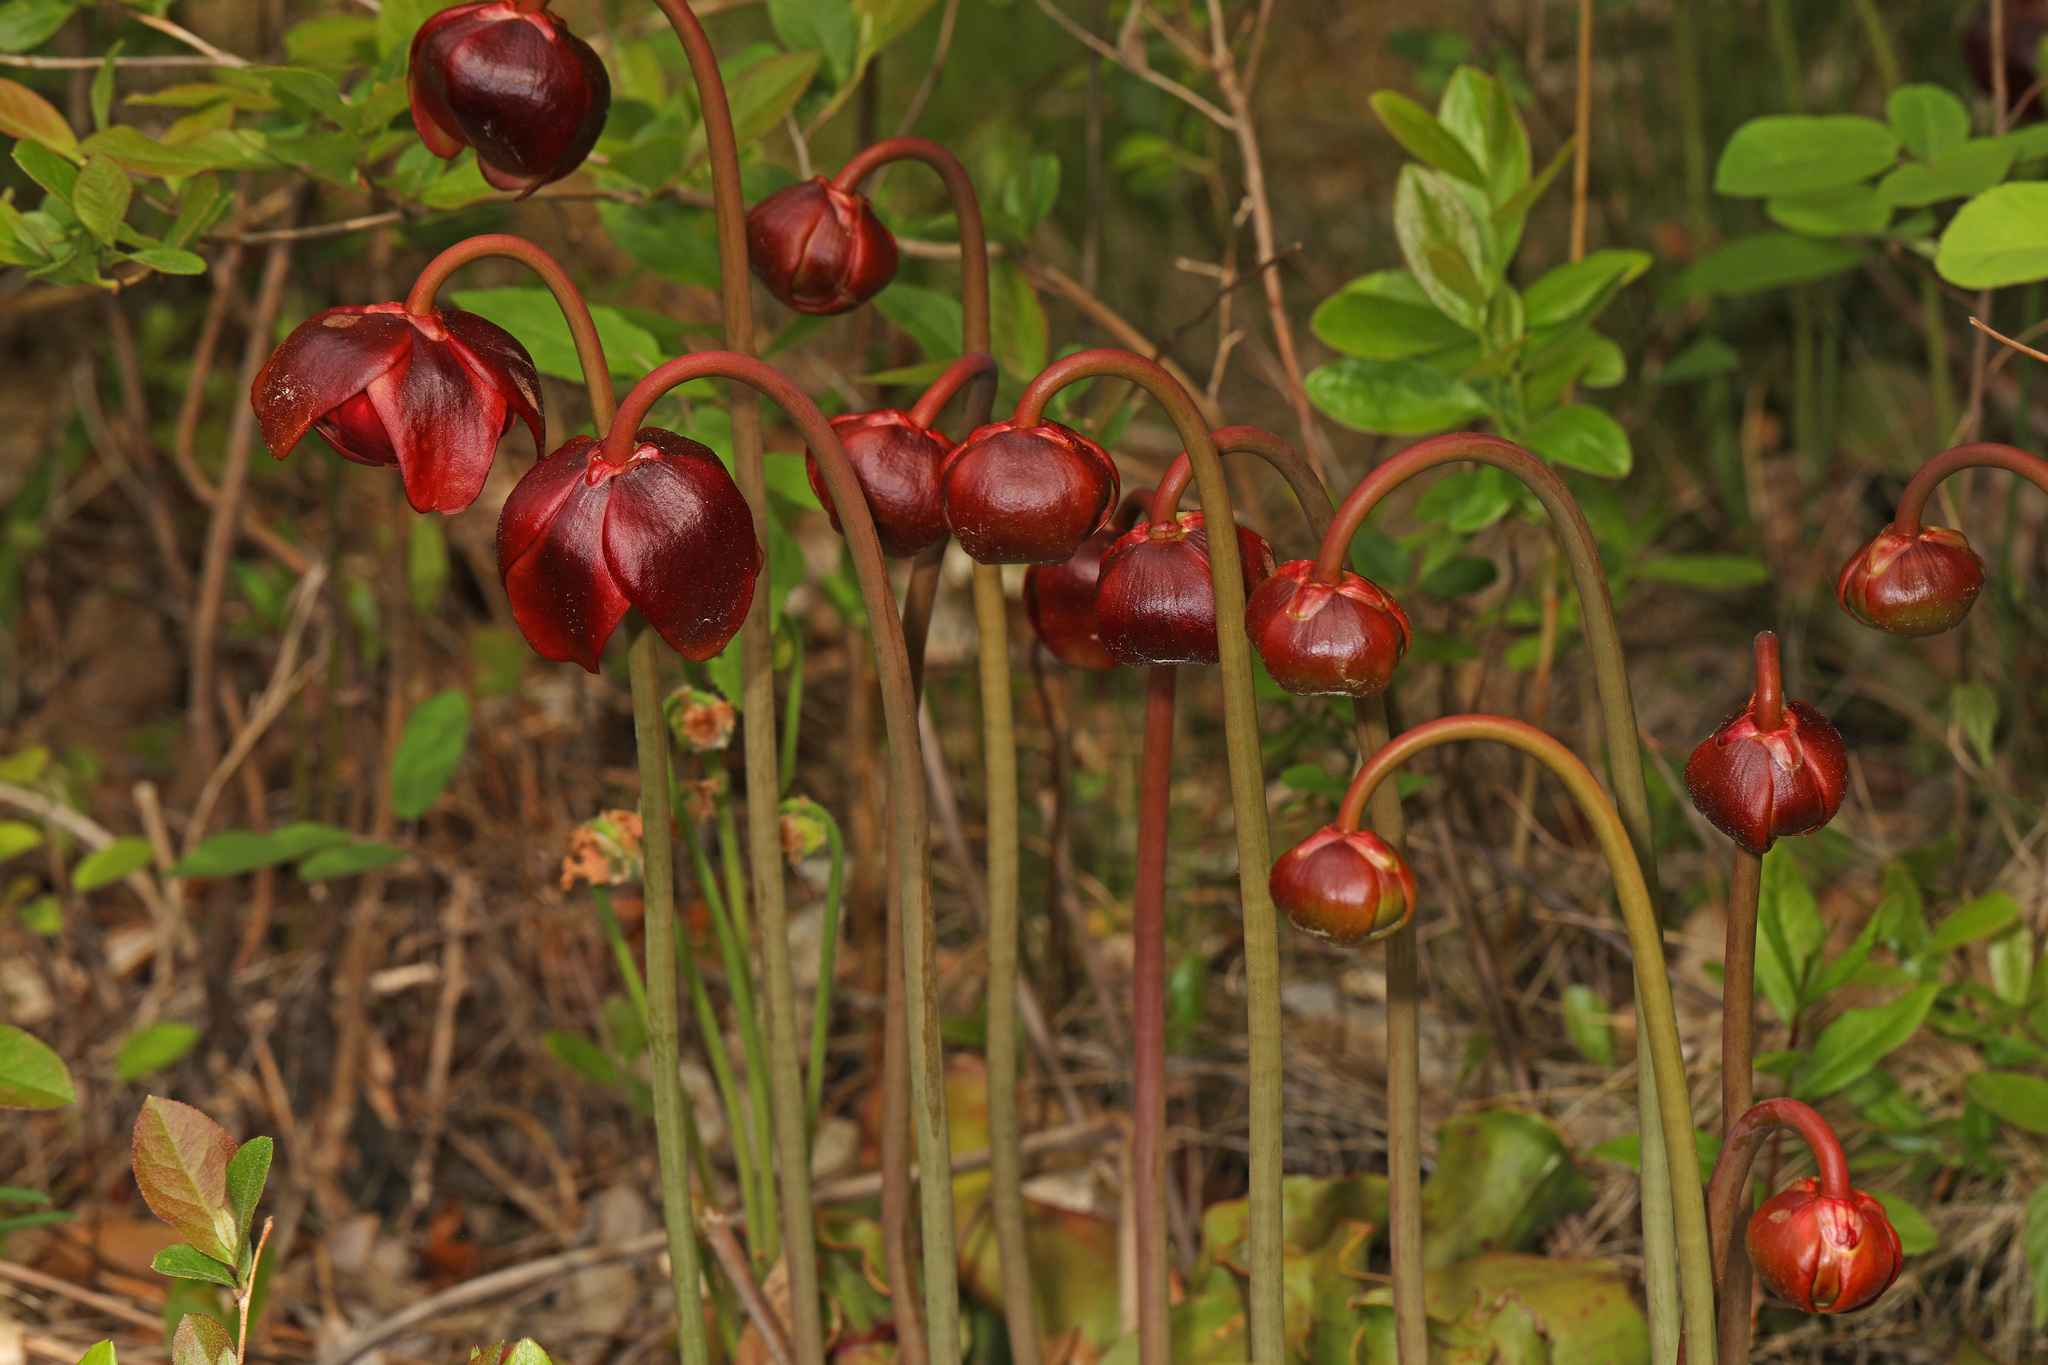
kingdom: Plantae
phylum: Tracheophyta
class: Magnoliopsida
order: Ericales
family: Sarraceniaceae
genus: Sarracenia
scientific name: Sarracenia purpurea
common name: Pitcherplant
